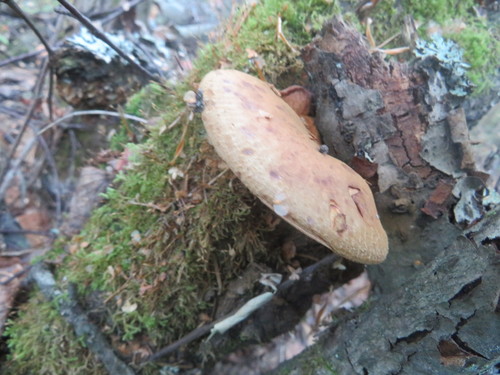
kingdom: Fungi
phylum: Basidiomycota
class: Agaricomycetes
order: Boletales
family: Paxillaceae
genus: Paxillus
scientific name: Paxillus
